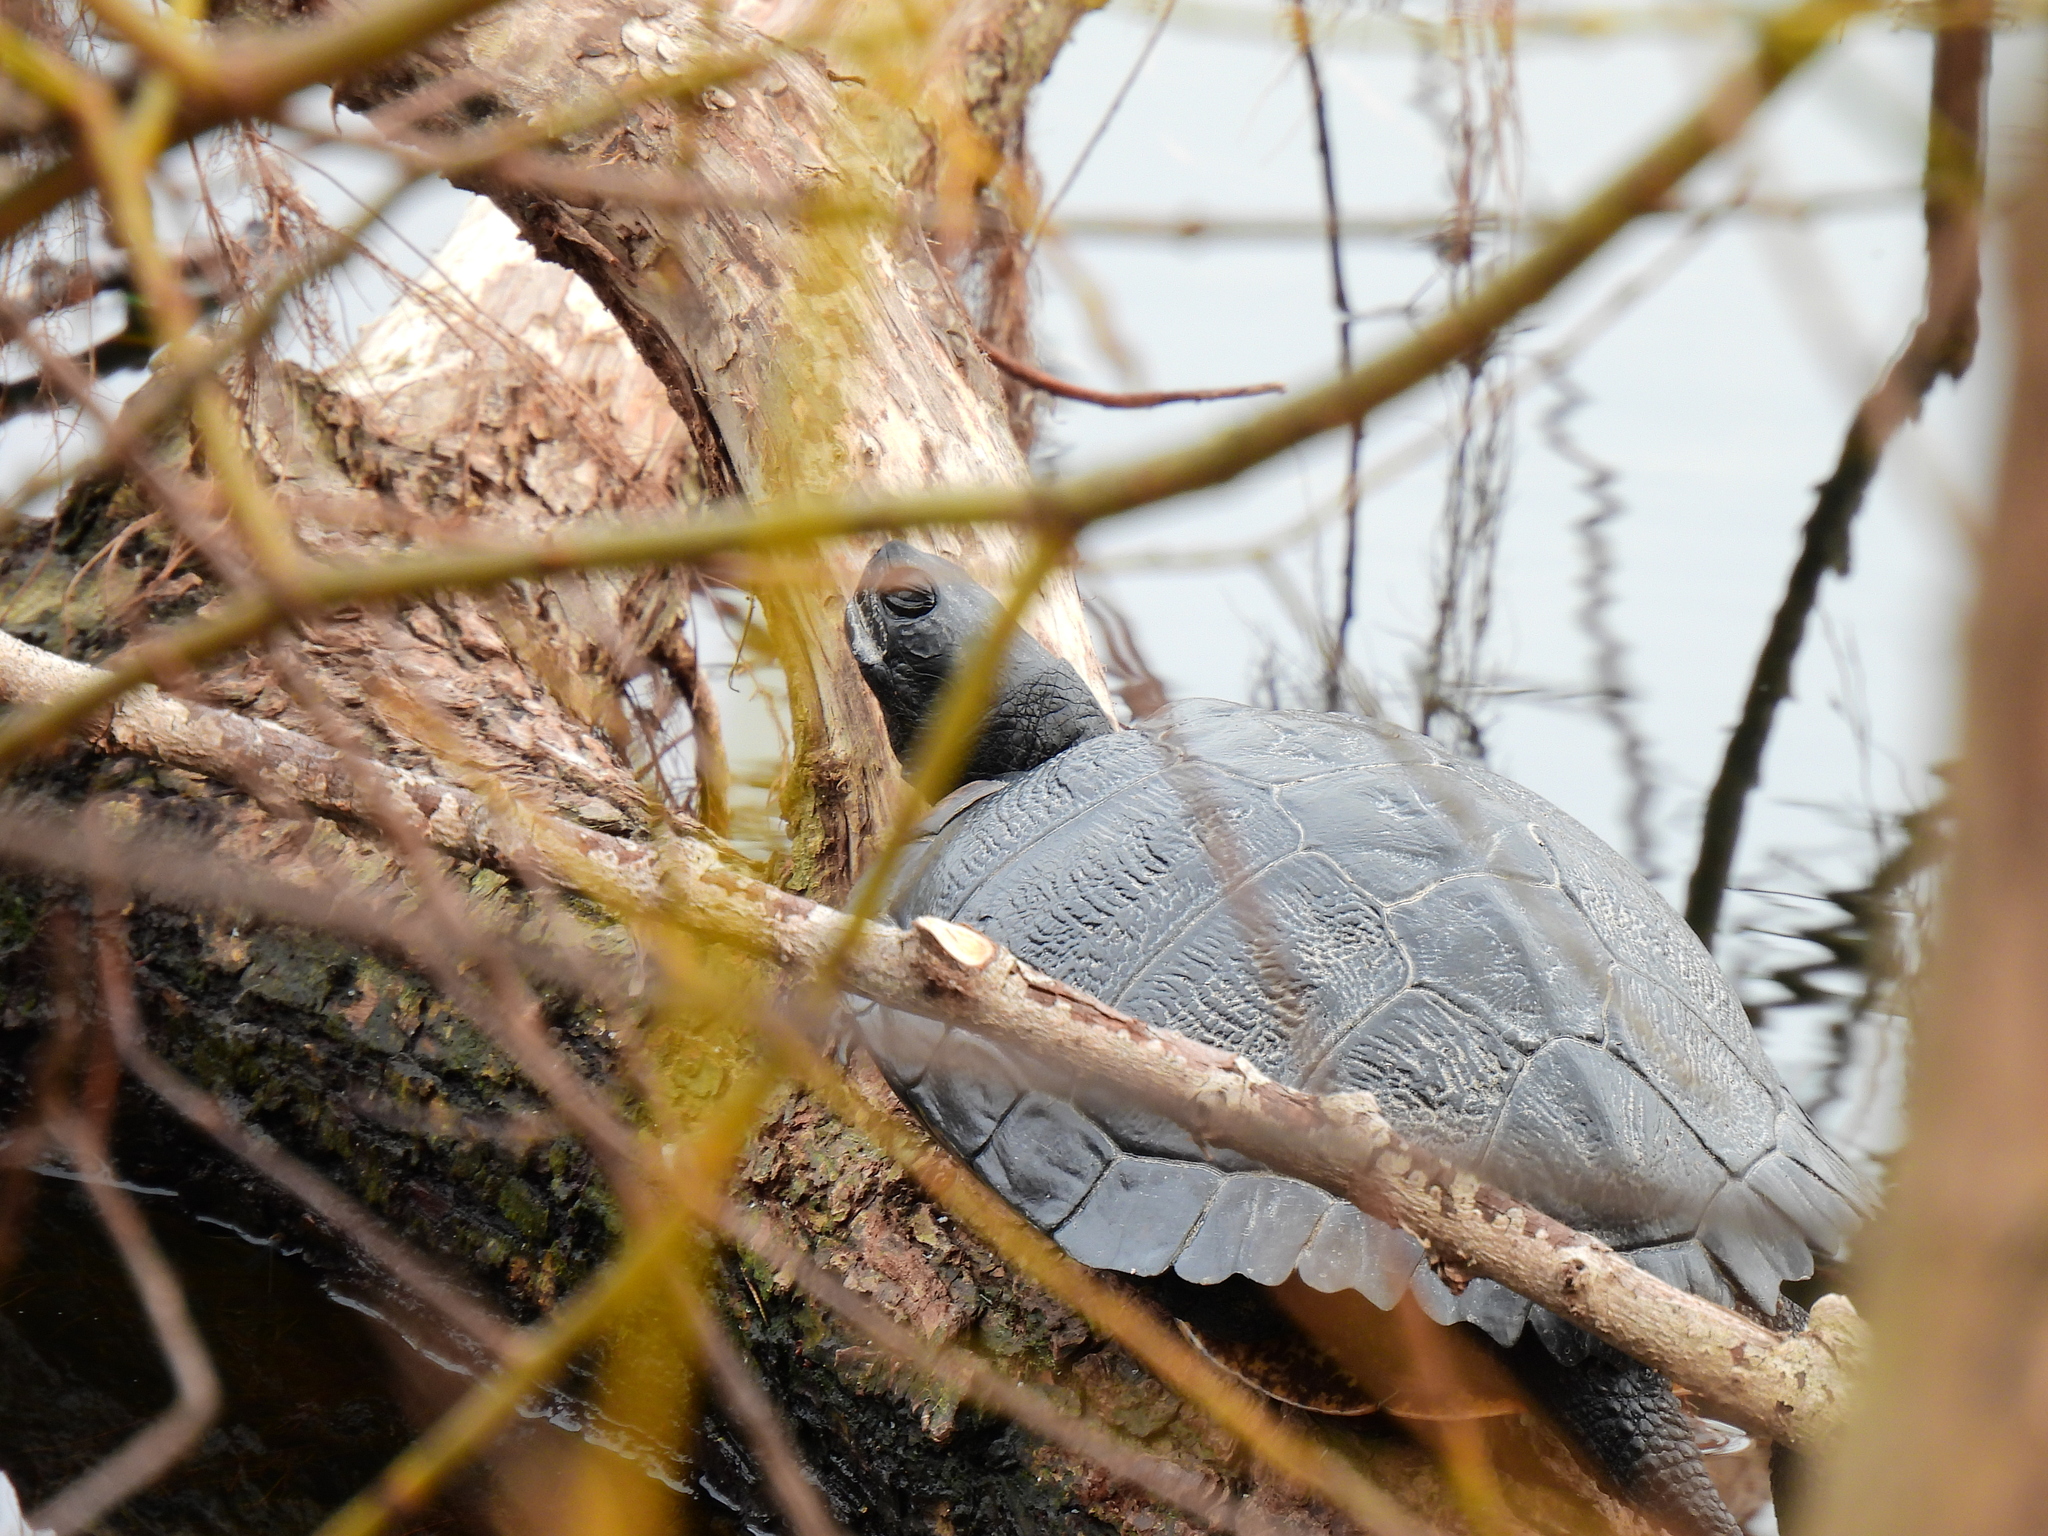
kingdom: Animalia
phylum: Chordata
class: Testudines
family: Emydidae
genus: Trachemys
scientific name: Trachemys scripta
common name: Slider
